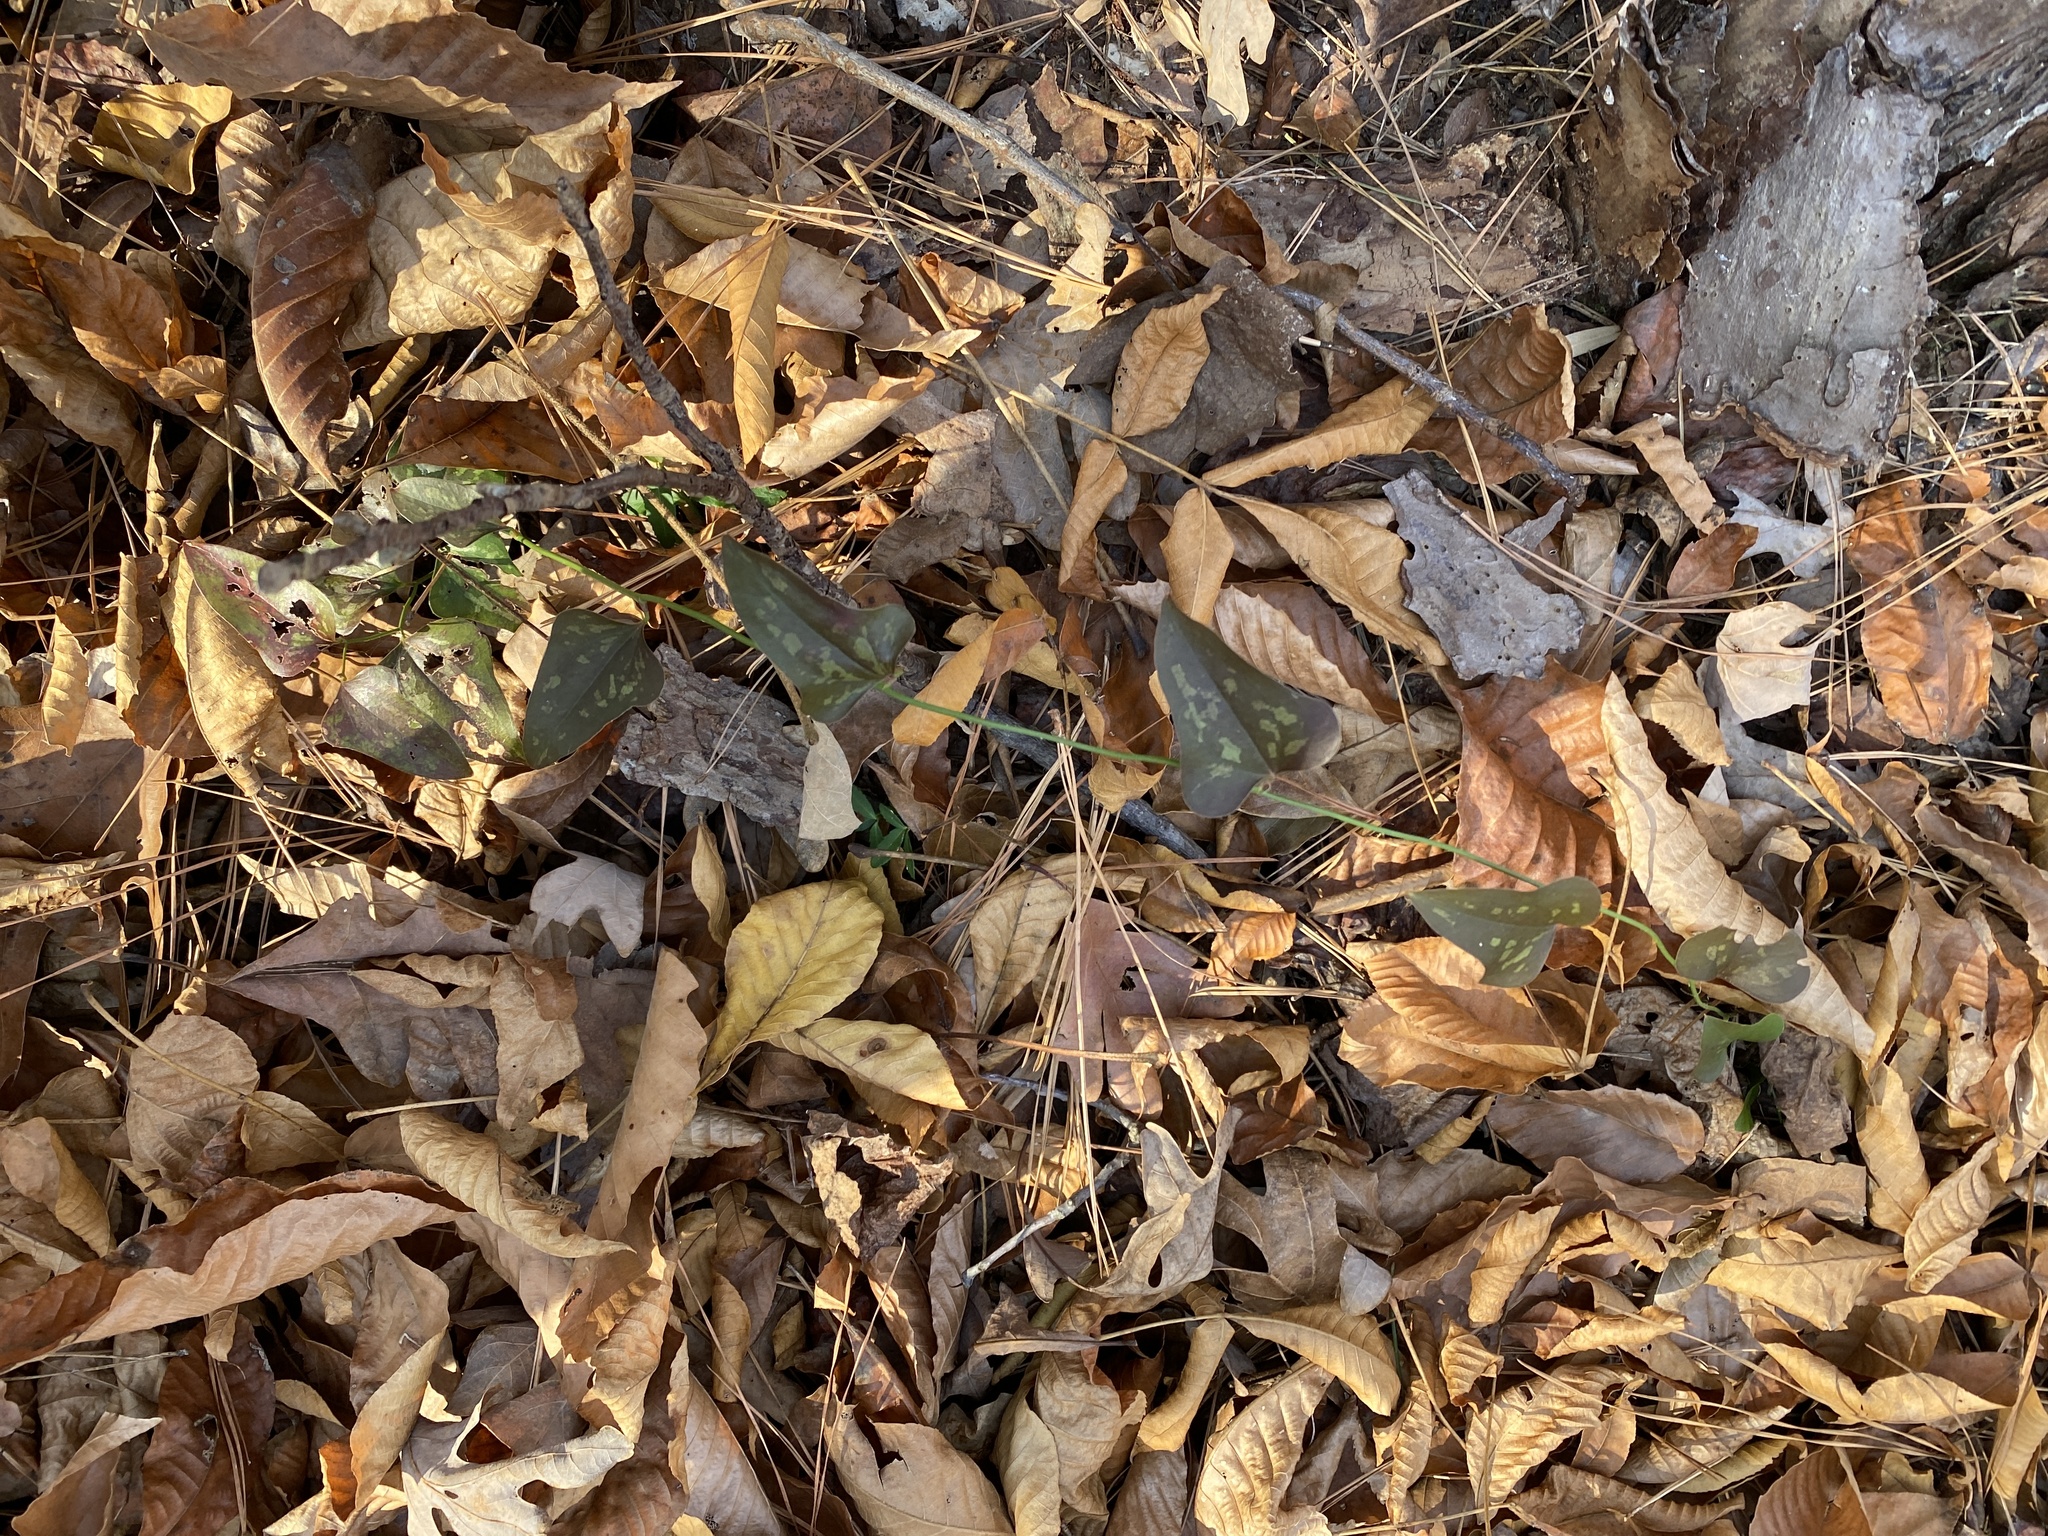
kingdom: Plantae
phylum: Tracheophyta
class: Liliopsida
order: Liliales
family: Smilacaceae
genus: Smilax
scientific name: Smilax bona-nox
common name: Catbrier
